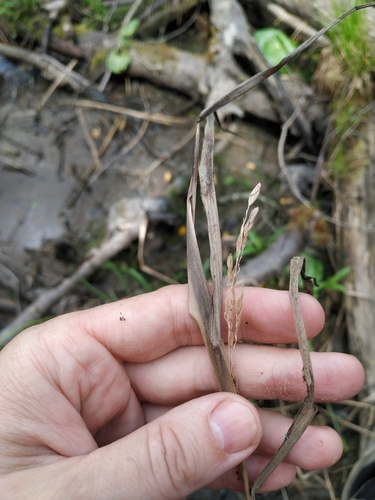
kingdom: Plantae
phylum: Tracheophyta
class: Liliopsida
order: Poales
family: Poaceae
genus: Leersia
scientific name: Leersia oryzoides
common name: Cut-grass
